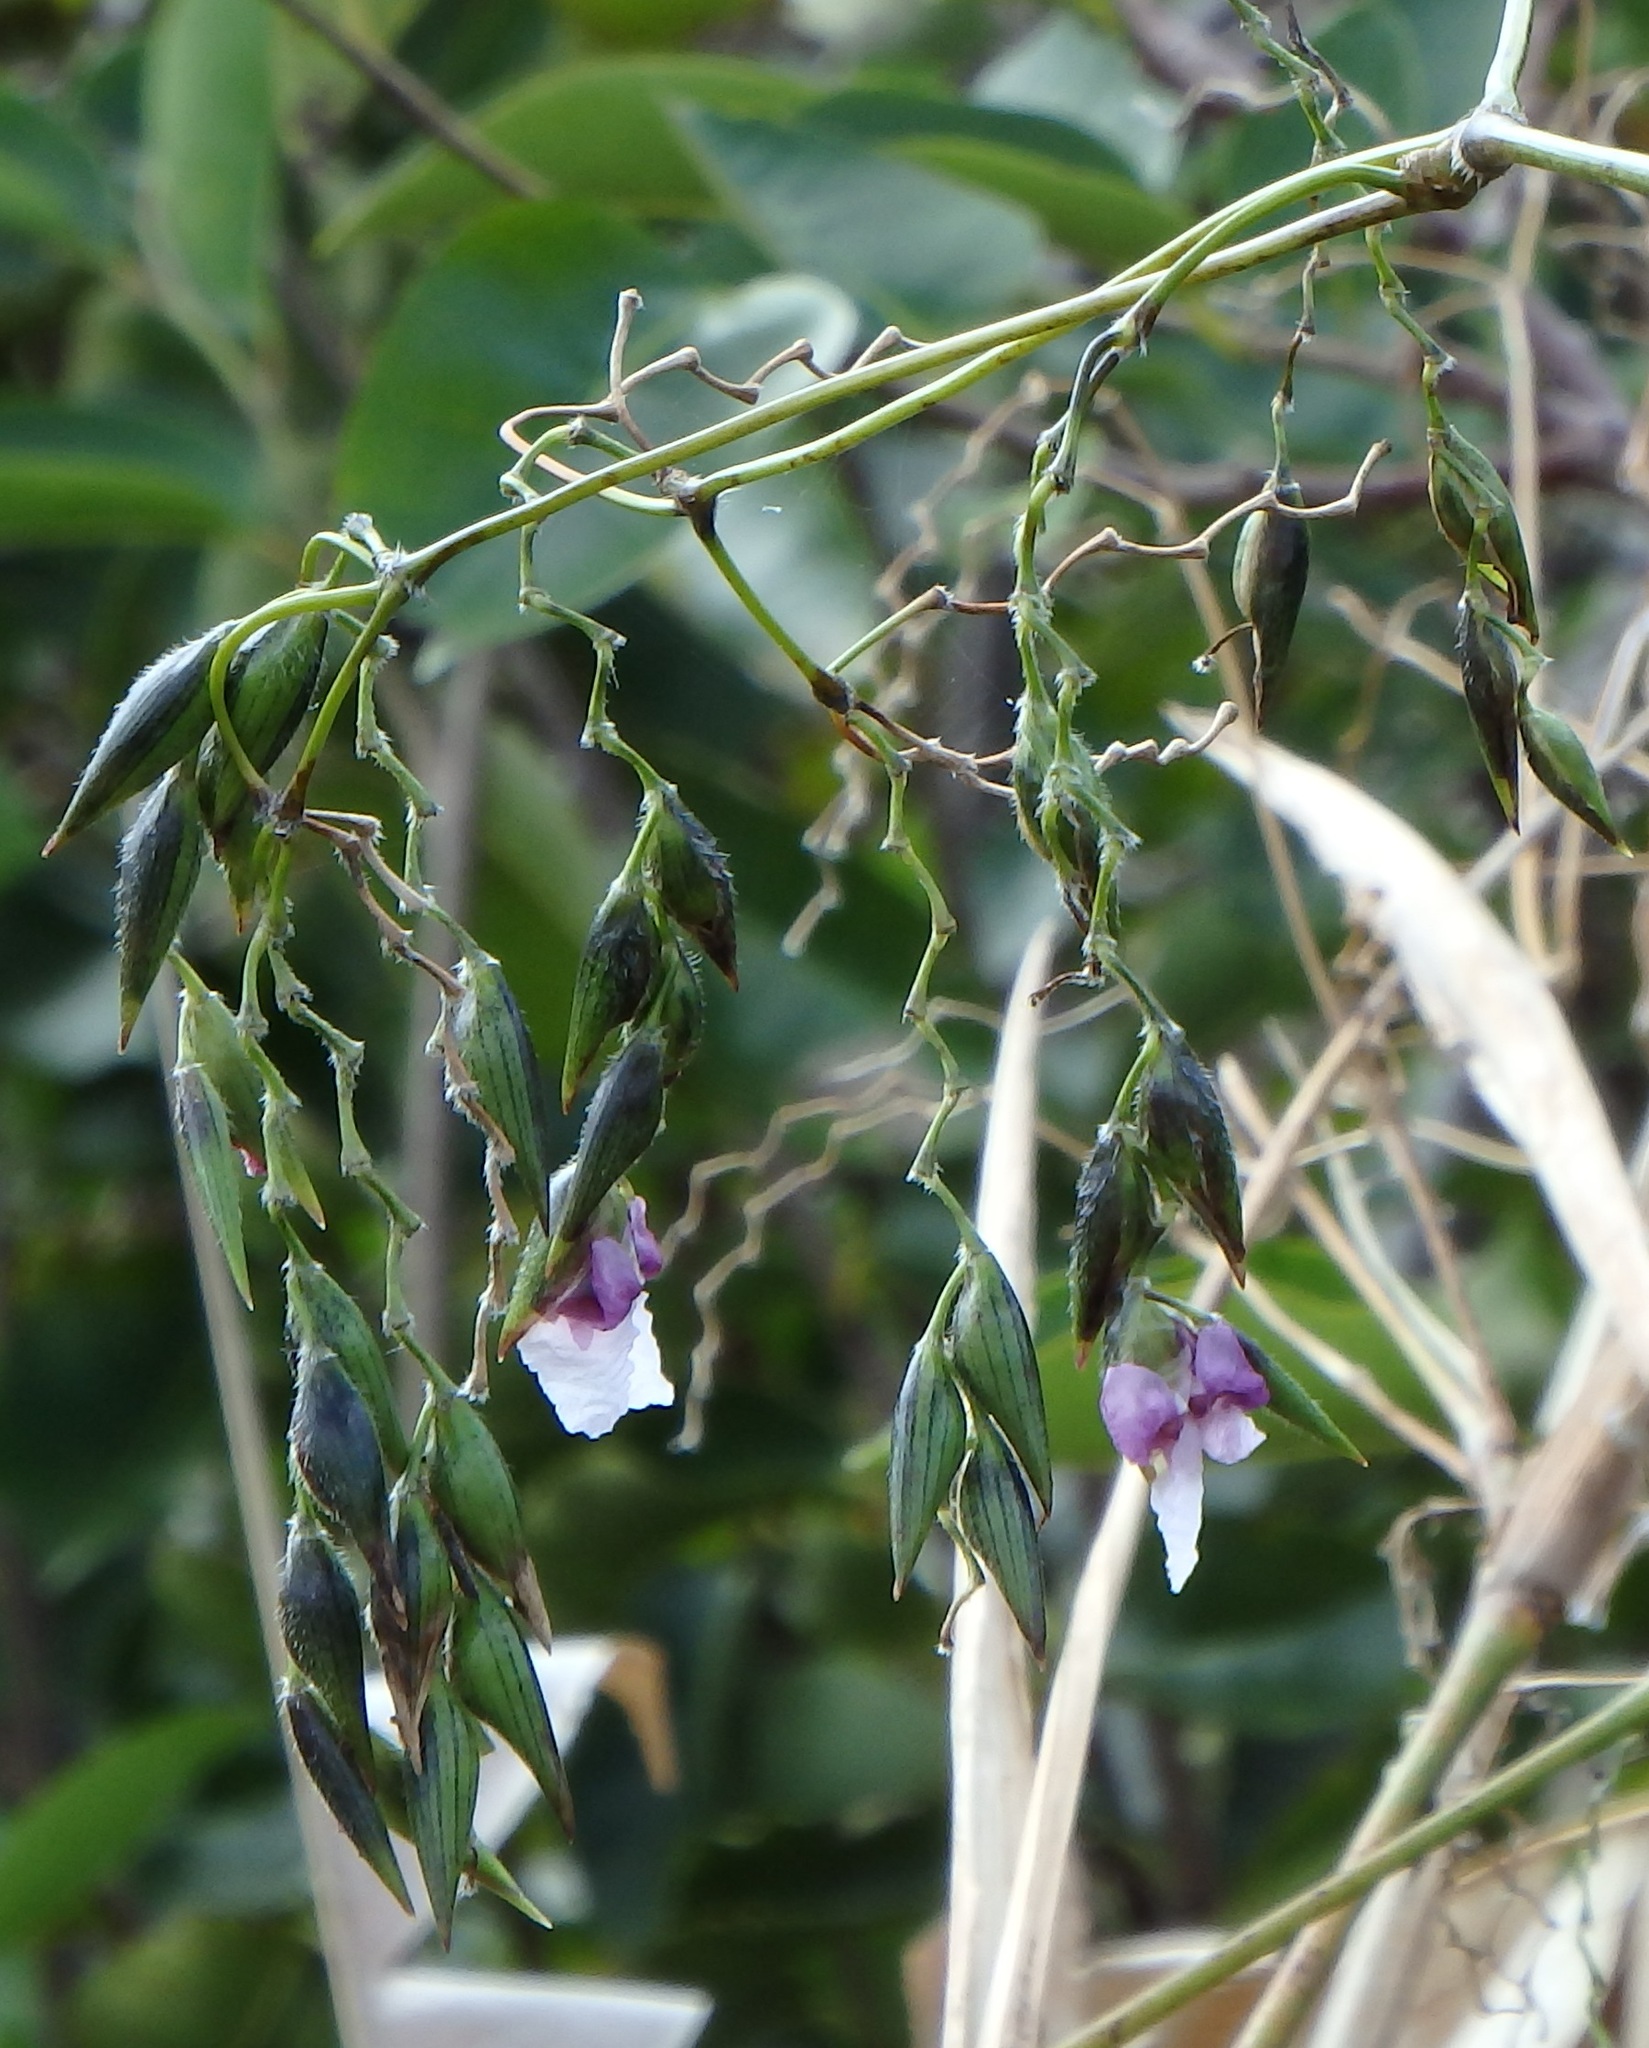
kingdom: Plantae
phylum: Tracheophyta
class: Liliopsida
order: Zingiberales
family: Marantaceae
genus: Thalia
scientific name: Thalia geniculata
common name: Arrowroot
